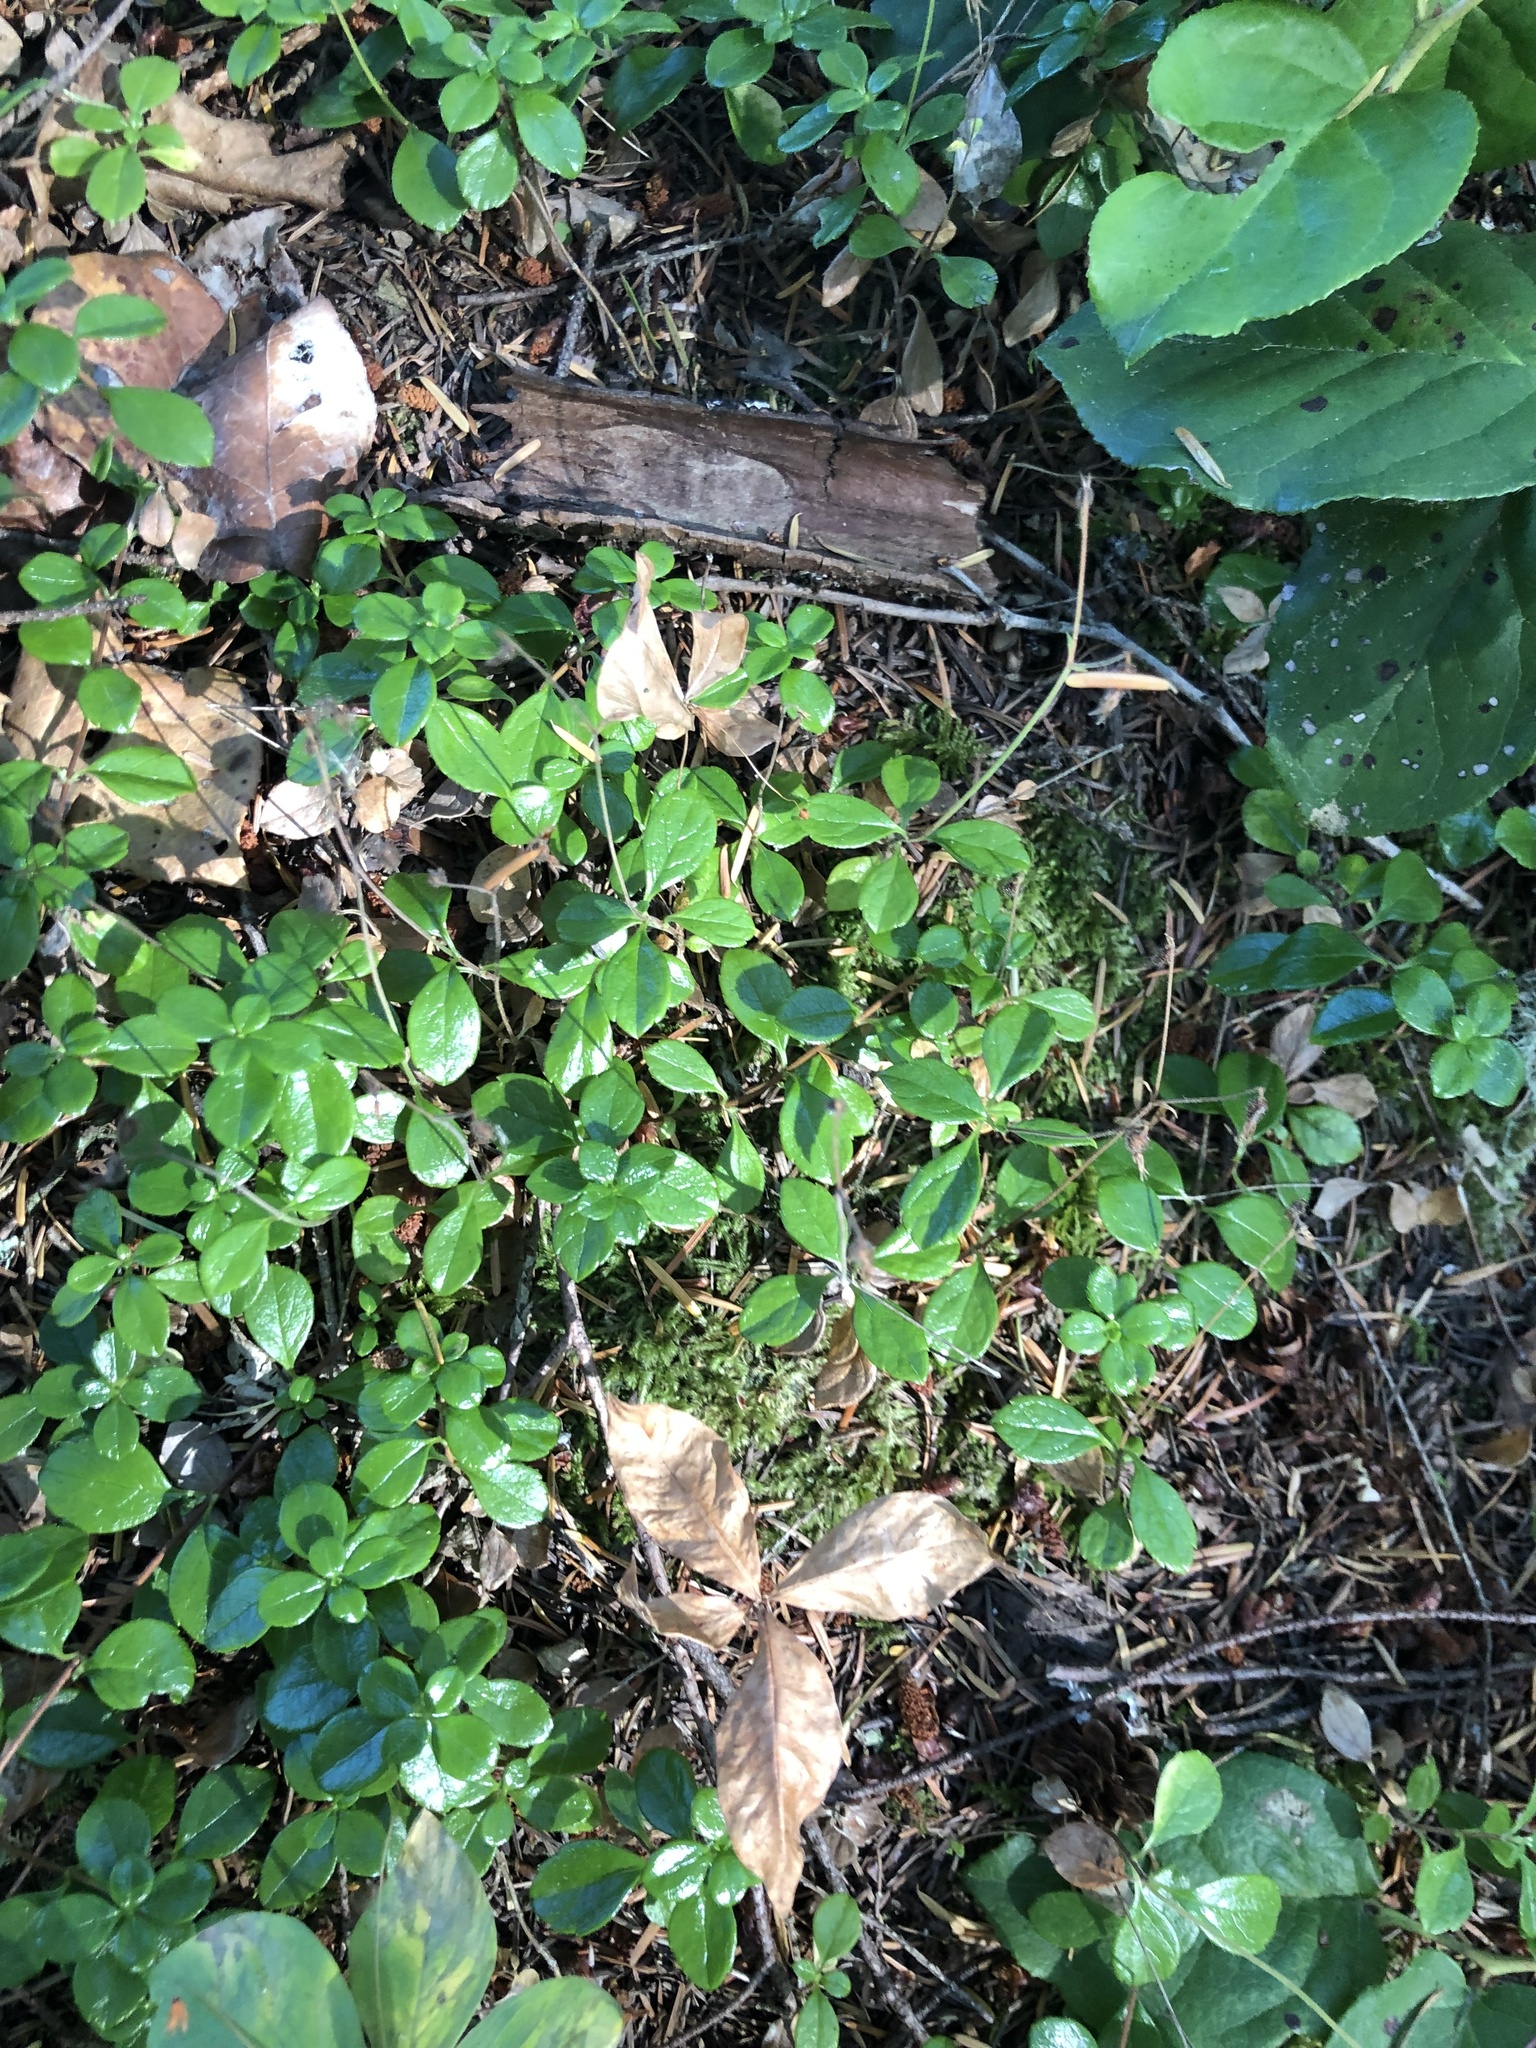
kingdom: Plantae
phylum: Tracheophyta
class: Magnoliopsida
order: Dipsacales
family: Caprifoliaceae
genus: Linnaea
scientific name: Linnaea borealis
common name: Twinflower
